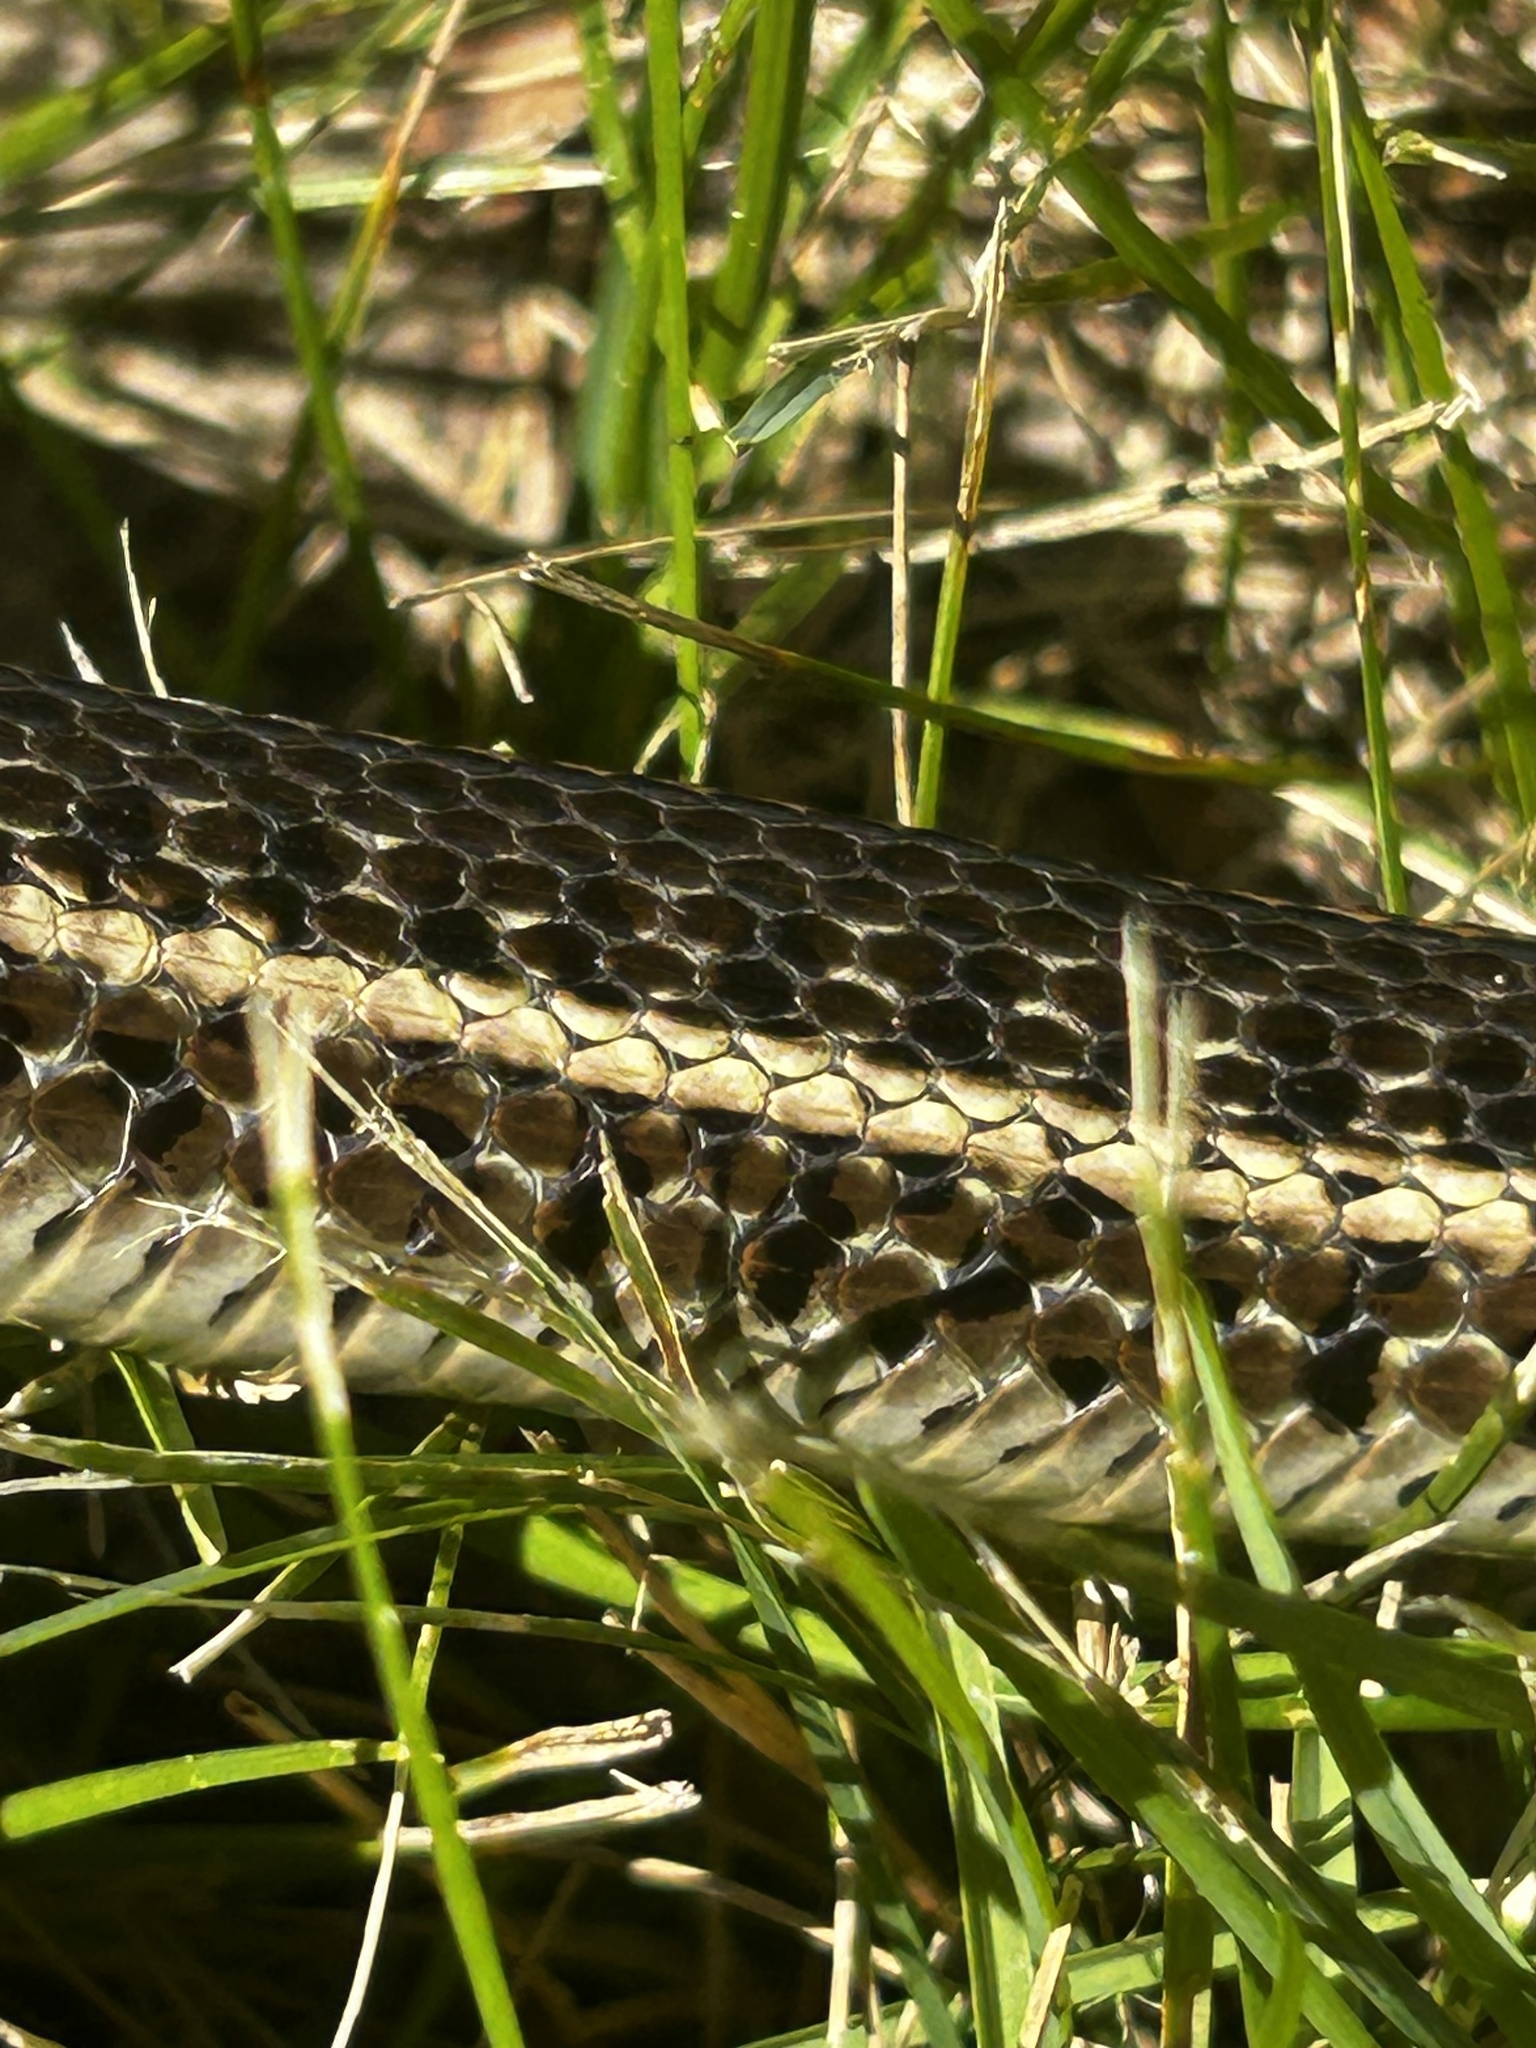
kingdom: Animalia
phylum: Chordata
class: Squamata
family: Colubridae
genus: Thamnophis
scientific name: Thamnophis radix
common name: Plains garter snake
